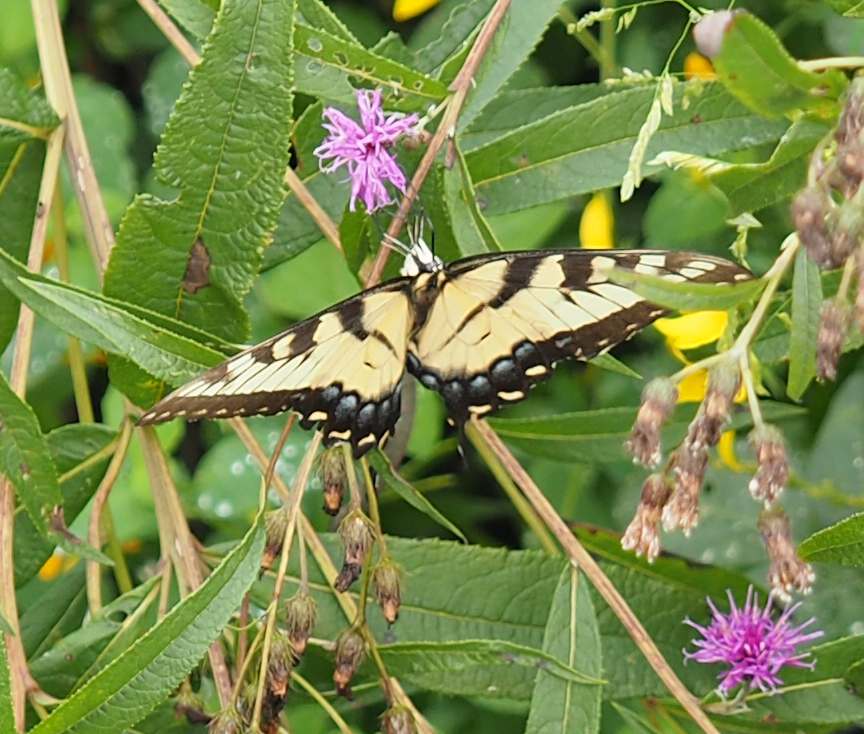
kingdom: Animalia
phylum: Arthropoda
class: Insecta
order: Lepidoptera
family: Papilionidae
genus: Papilio
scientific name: Papilio glaucus
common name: Tiger swallowtail
